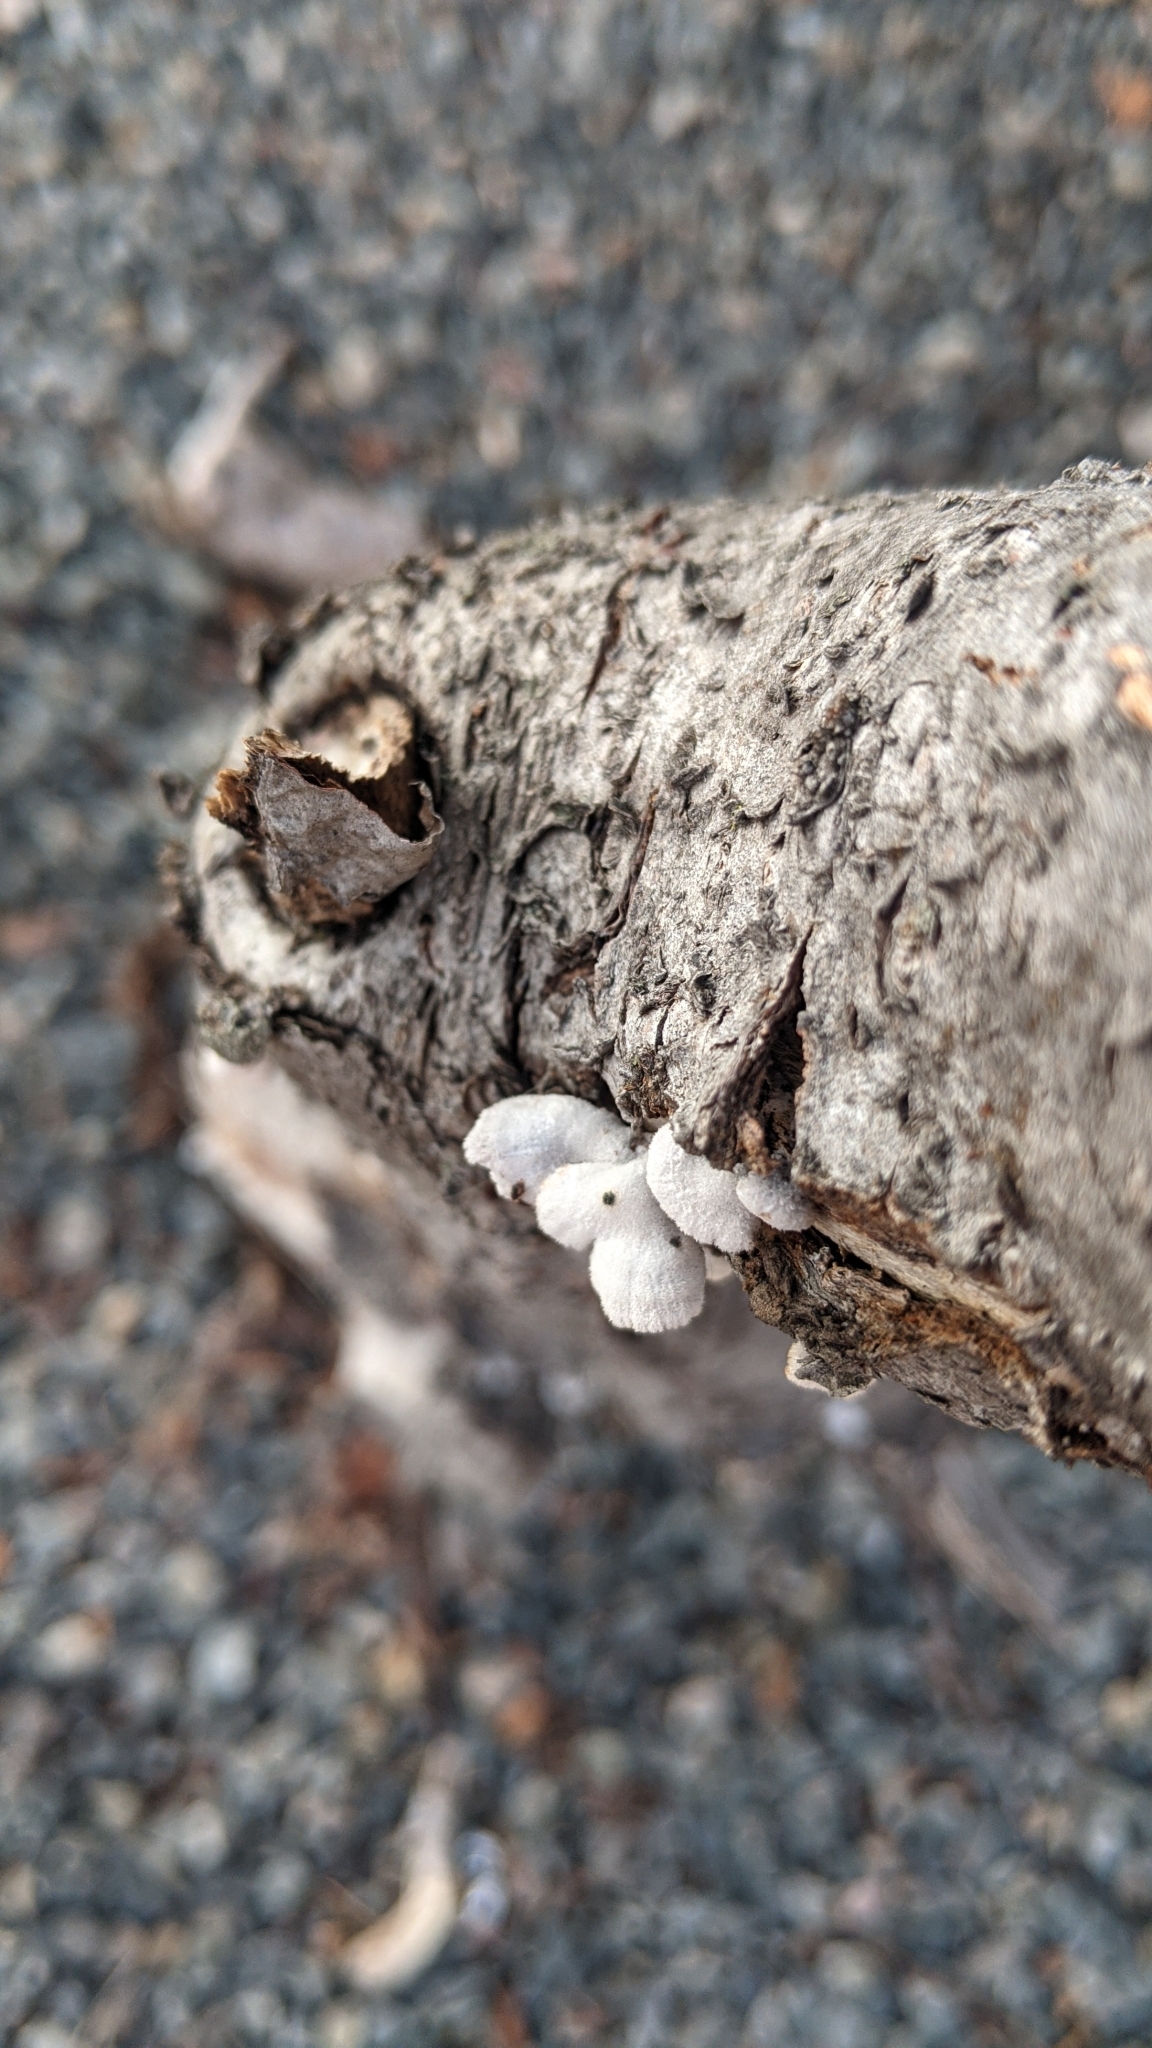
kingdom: Fungi
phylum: Basidiomycota
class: Agaricomycetes
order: Agaricales
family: Schizophyllaceae
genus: Schizophyllum
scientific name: Schizophyllum commune
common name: Common porecrust
